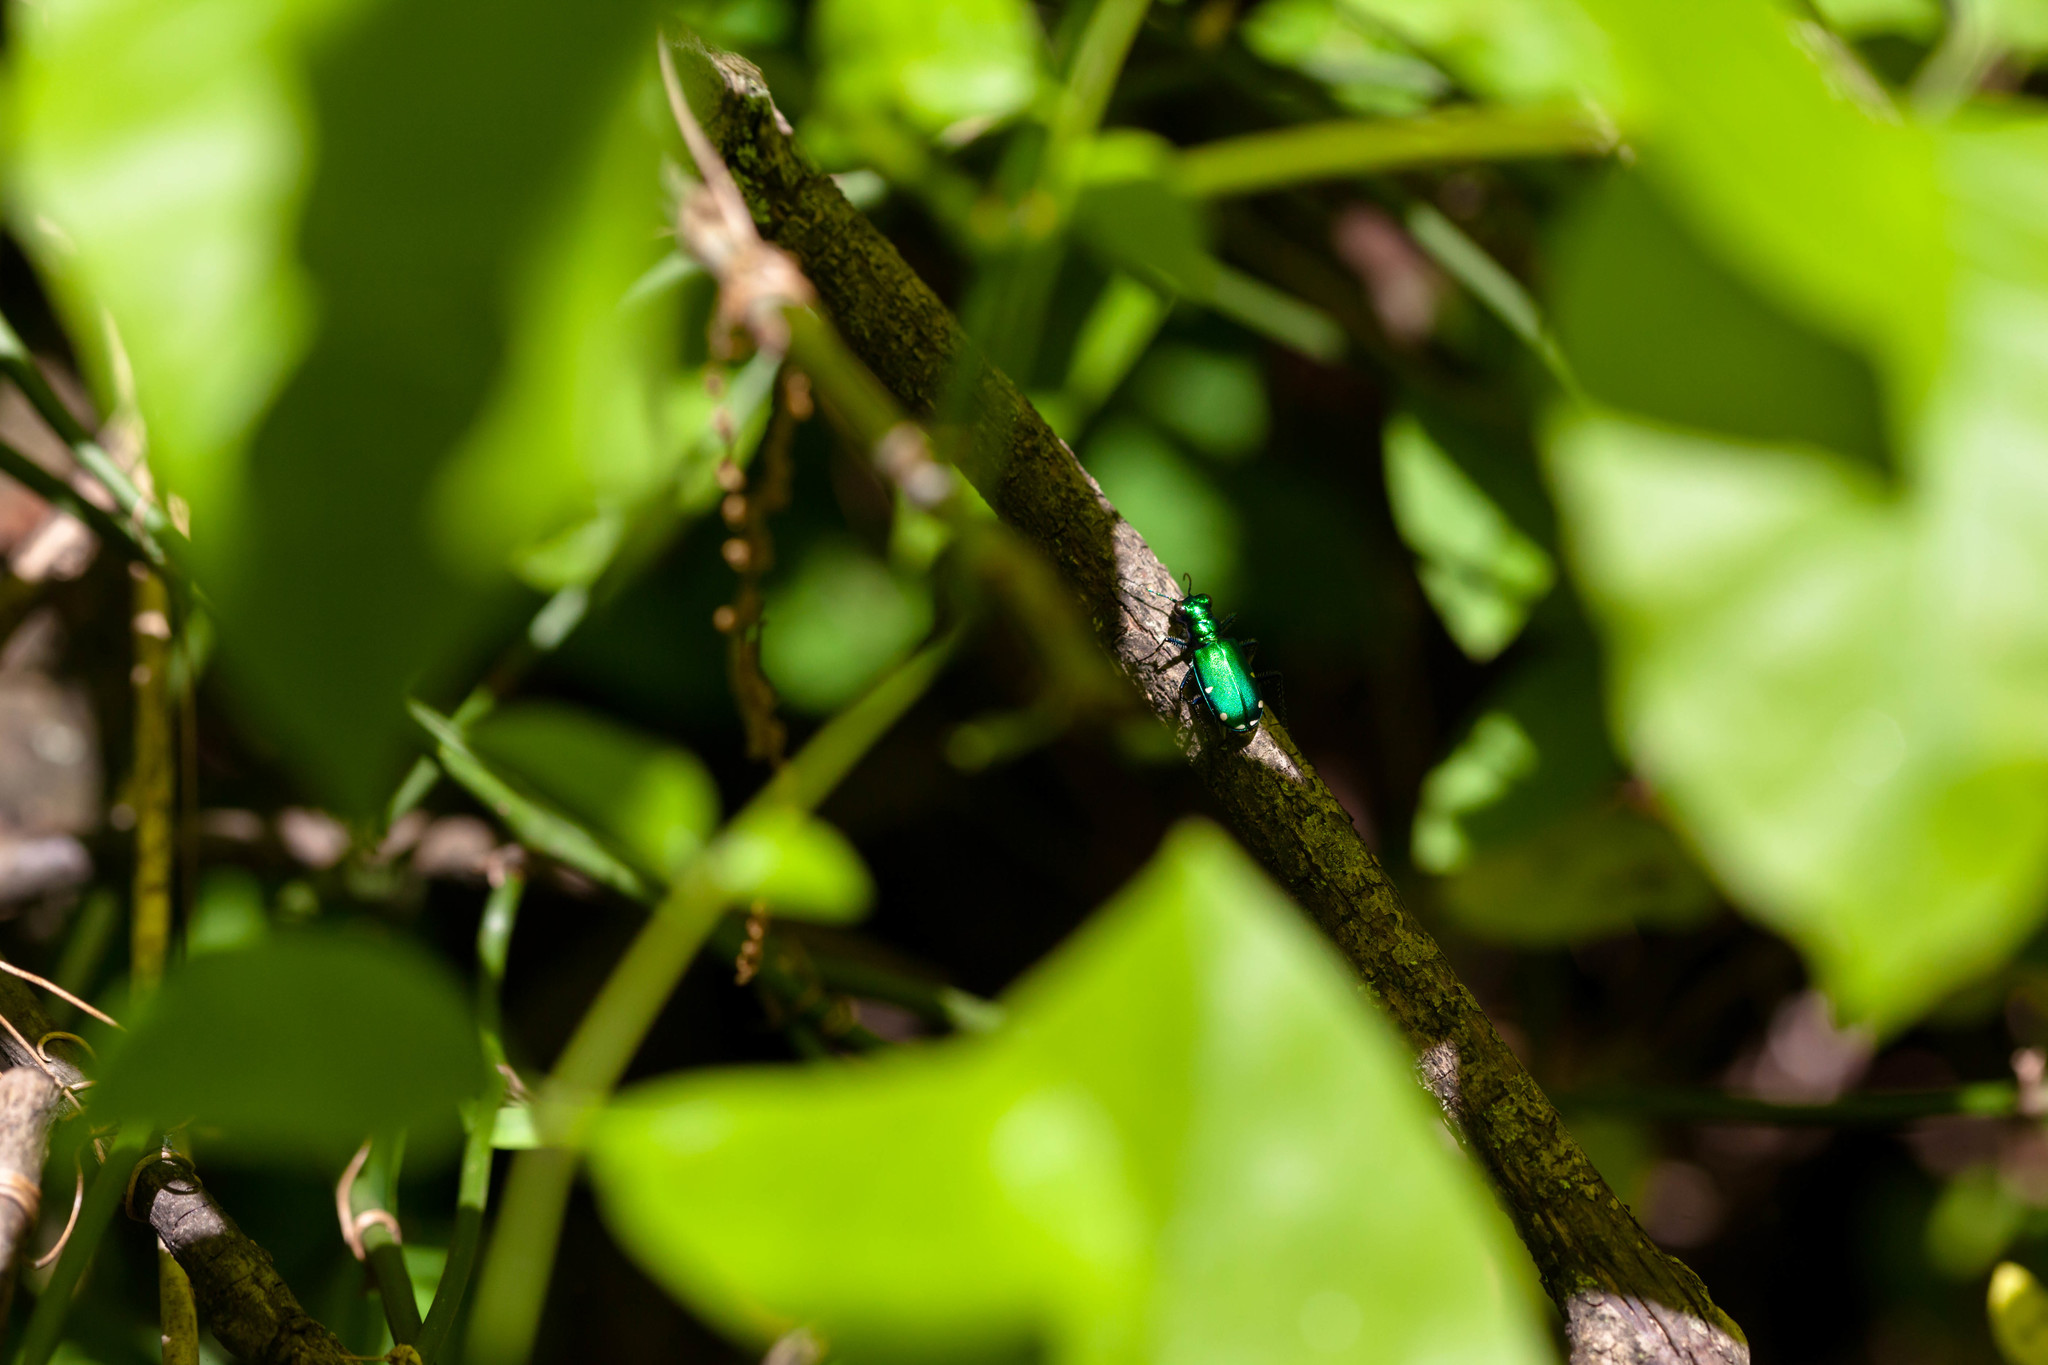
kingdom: Animalia
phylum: Arthropoda
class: Insecta
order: Coleoptera
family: Carabidae
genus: Cicindela
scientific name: Cicindela sexguttata
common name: Six-spotted tiger beetle
